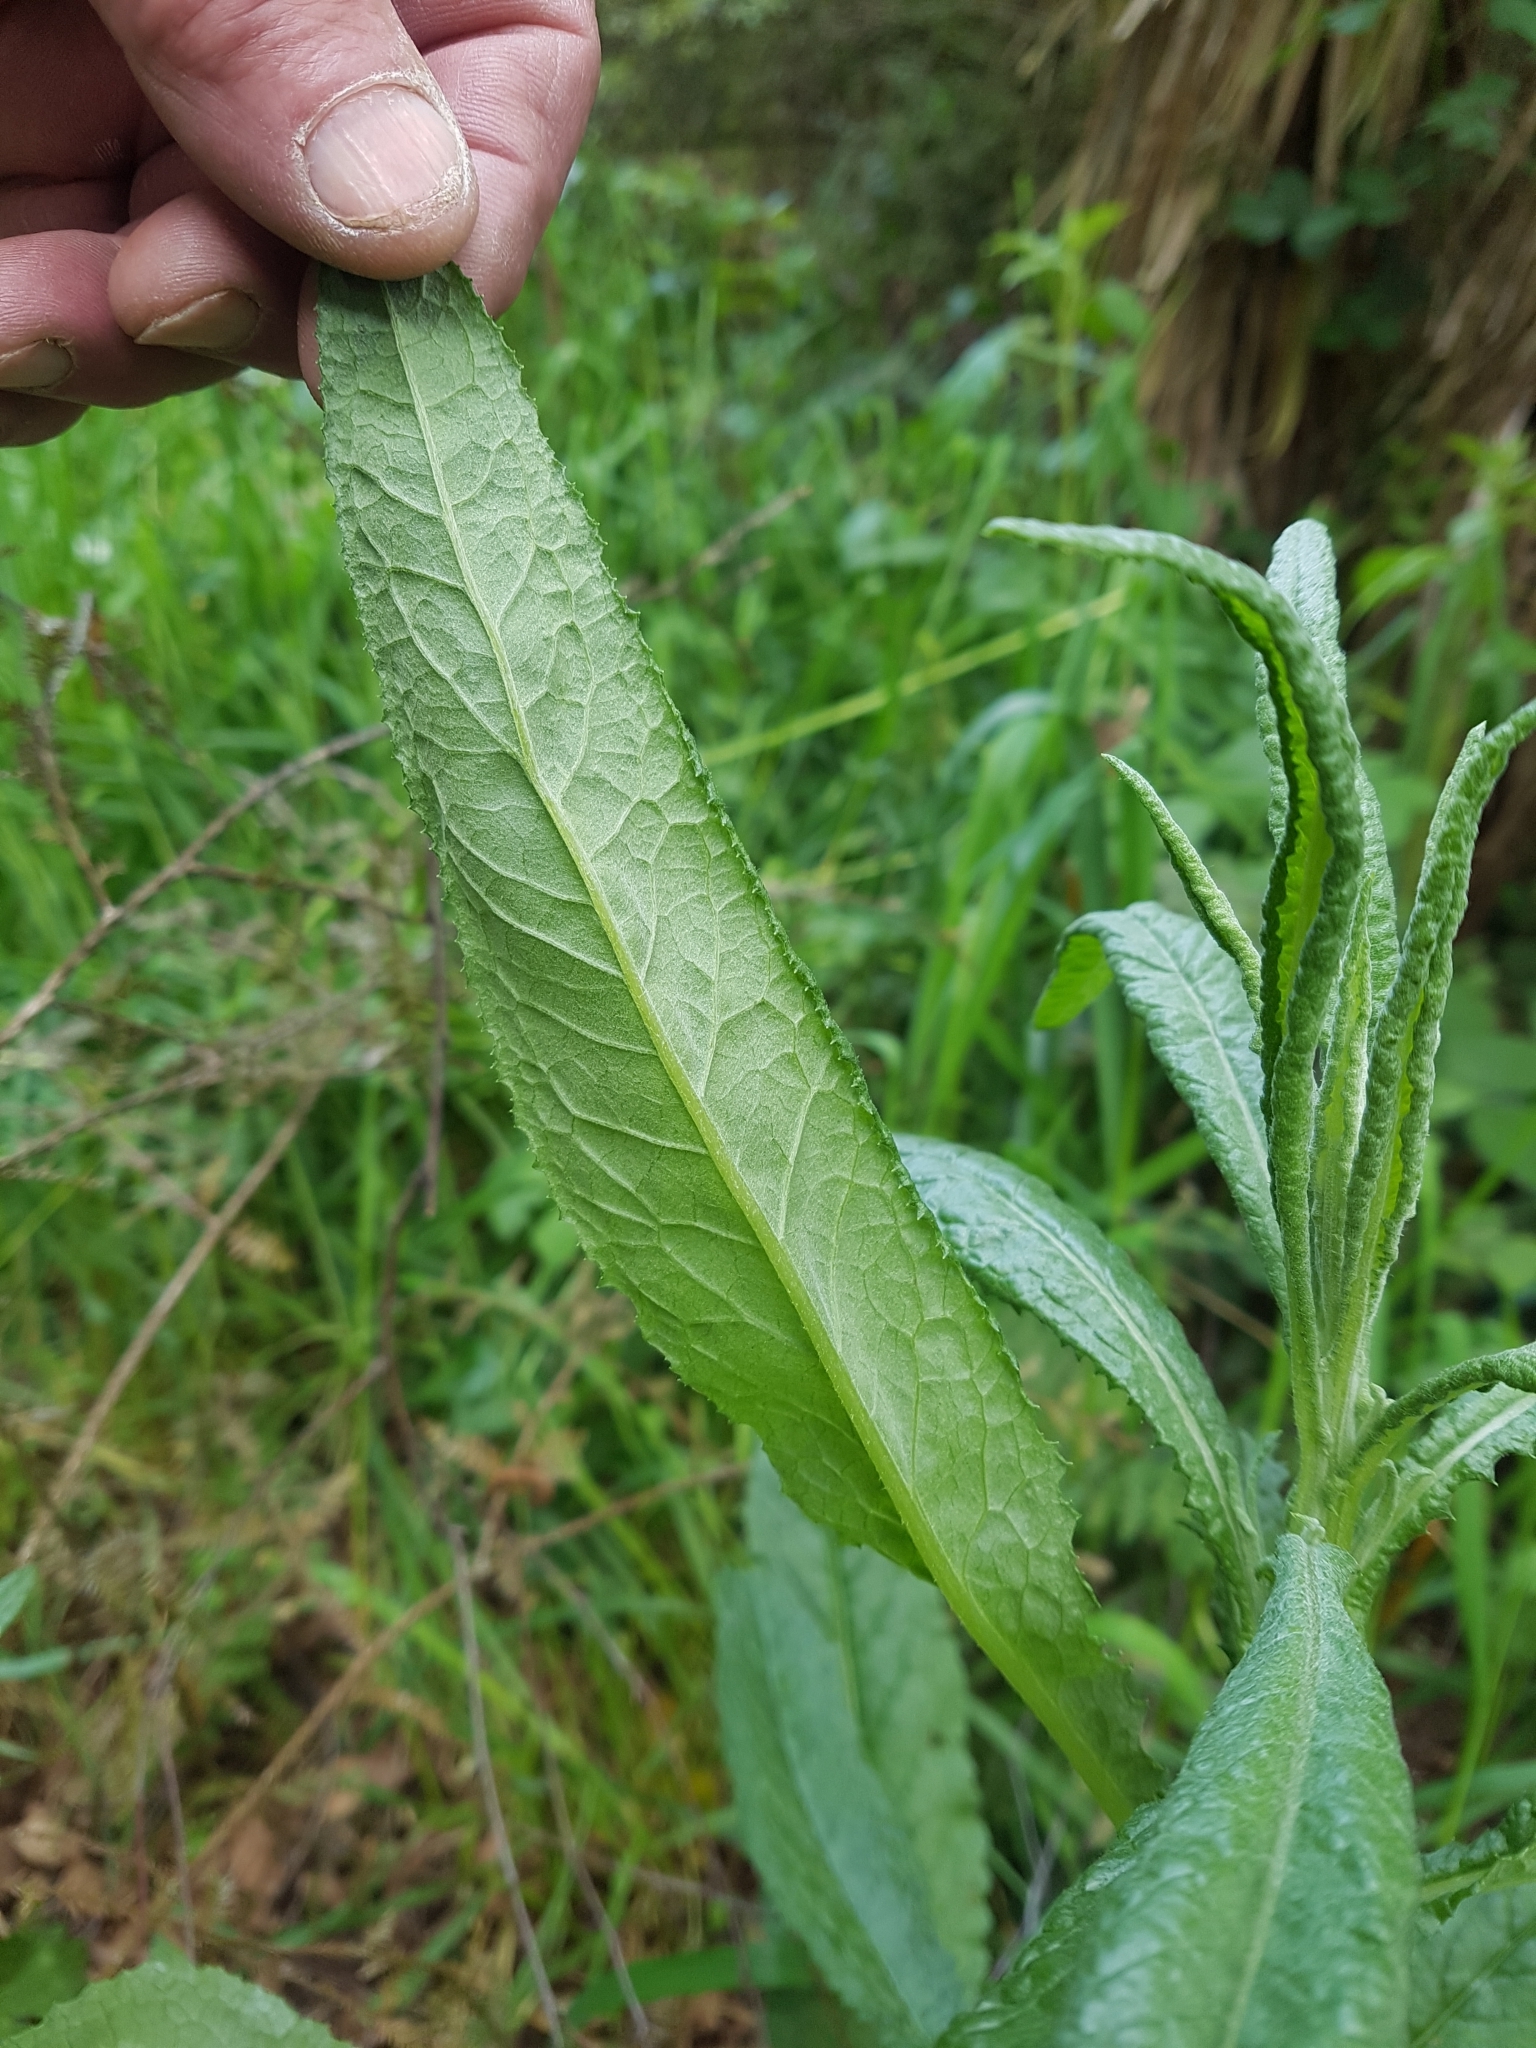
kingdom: Plantae
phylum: Tracheophyta
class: Magnoliopsida
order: Asterales
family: Asteraceae
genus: Senecio
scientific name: Senecio minimus
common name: Toothed fireweed
